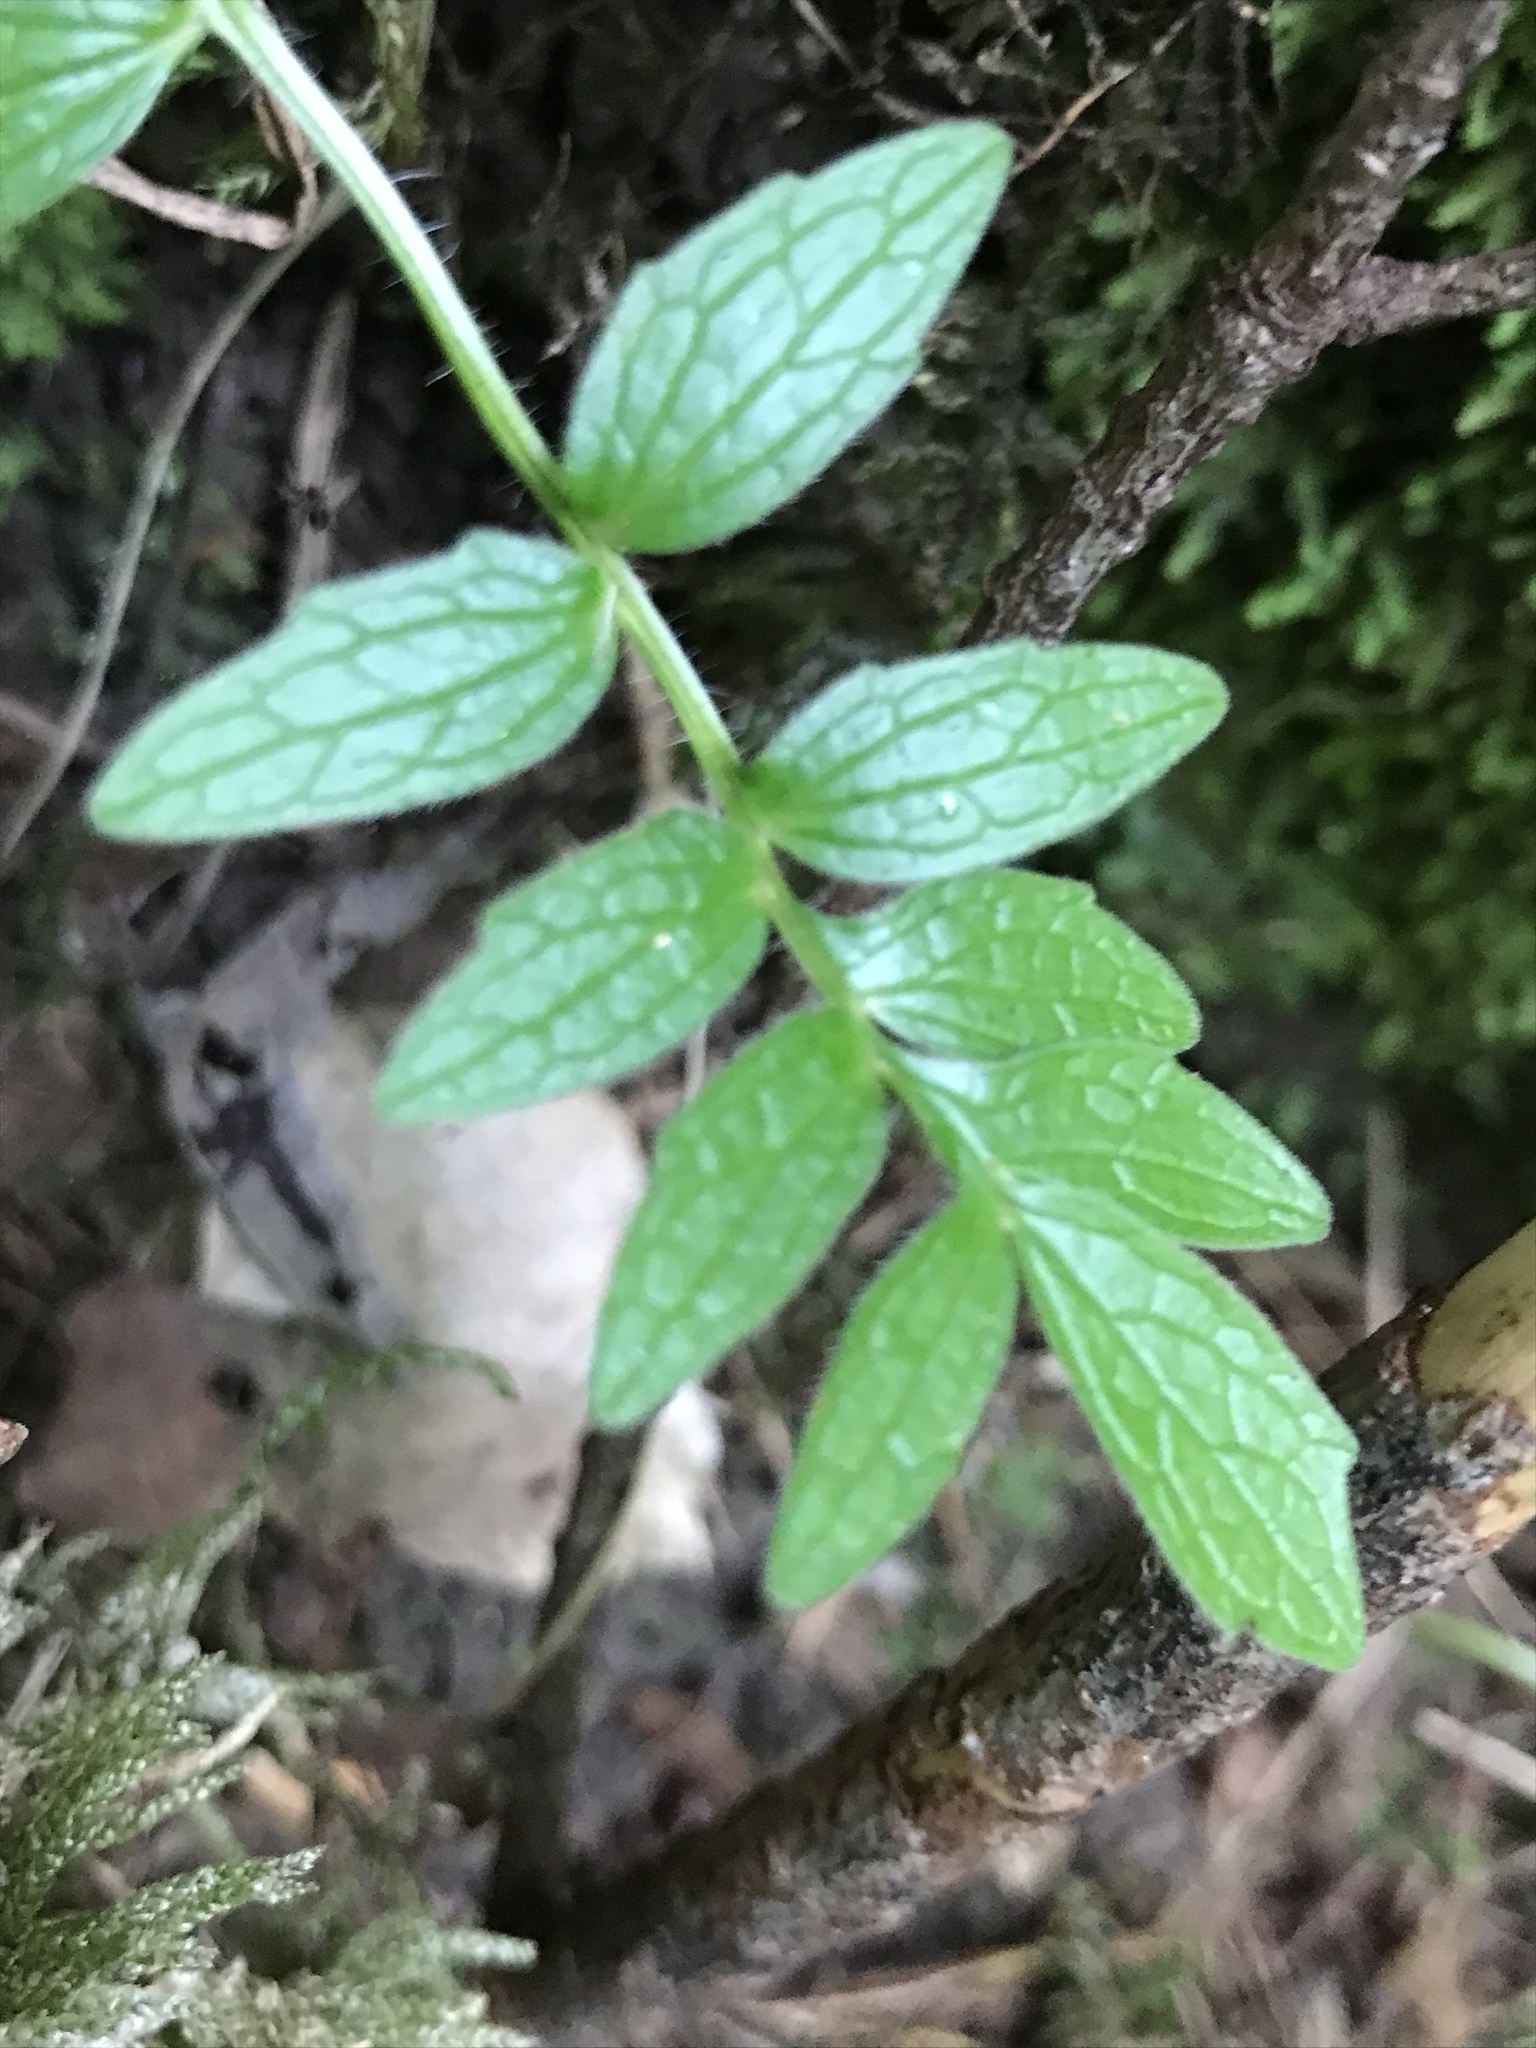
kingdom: Plantae
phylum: Tracheophyta
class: Magnoliopsida
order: Dipsacales
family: Caprifoliaceae
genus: Valeriana
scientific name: Valeriana officinalis
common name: Common valerian
